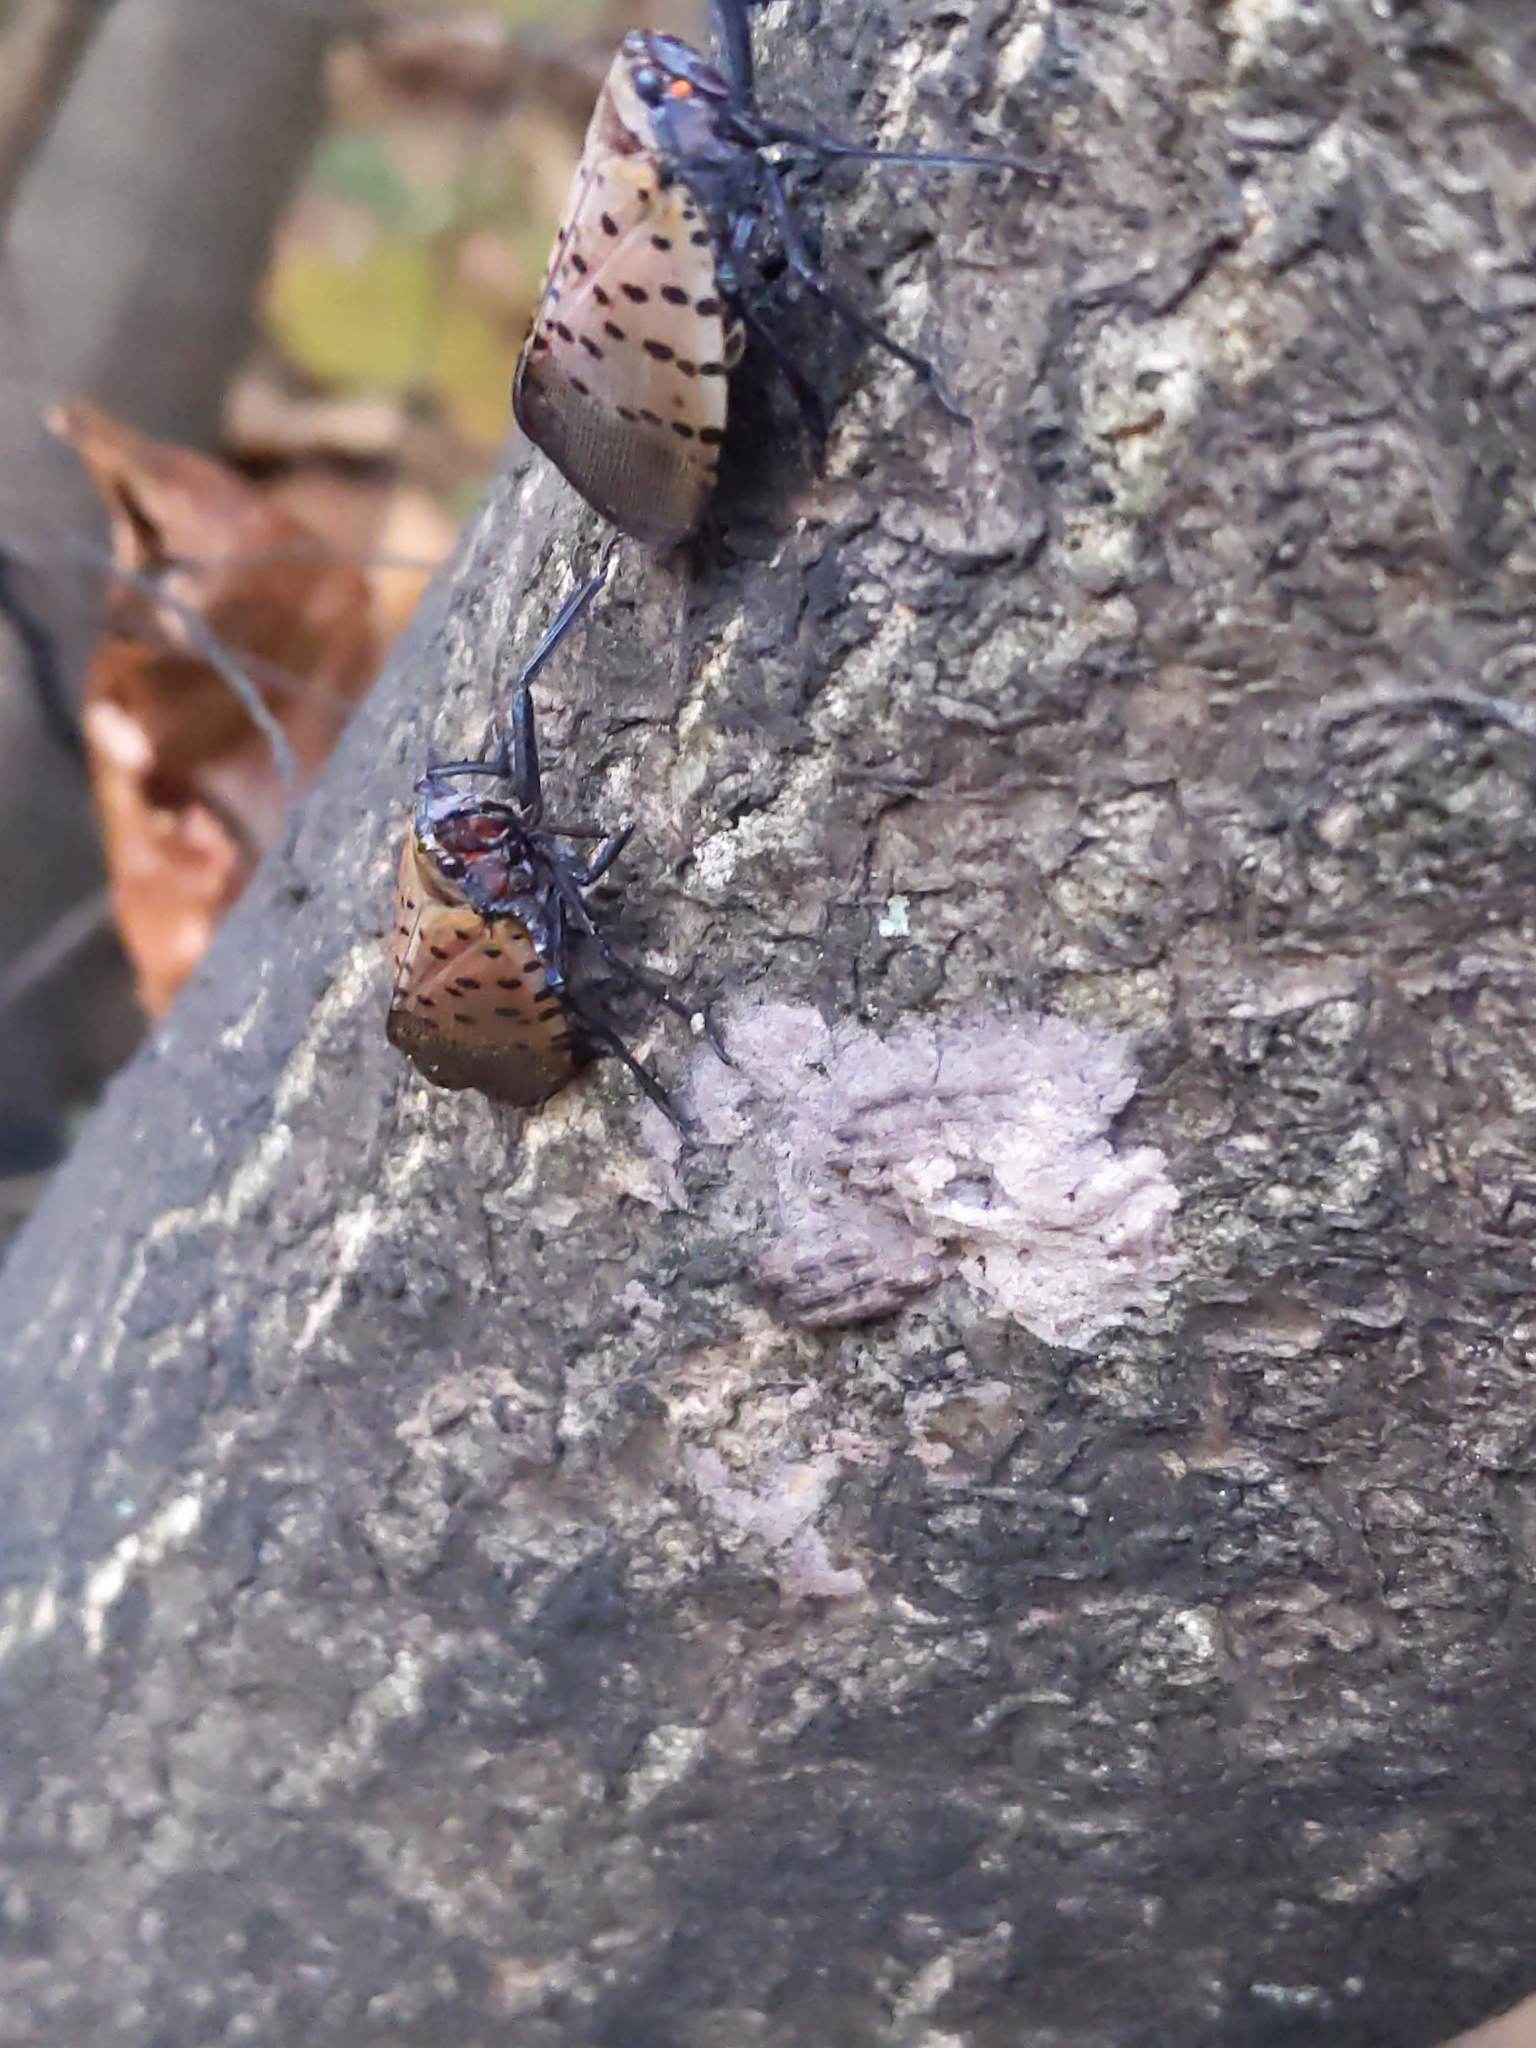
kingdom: Animalia
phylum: Arthropoda
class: Insecta
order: Hemiptera
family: Fulgoridae
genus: Lycorma
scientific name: Lycorma delicatula
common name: Spotted lanternfly
